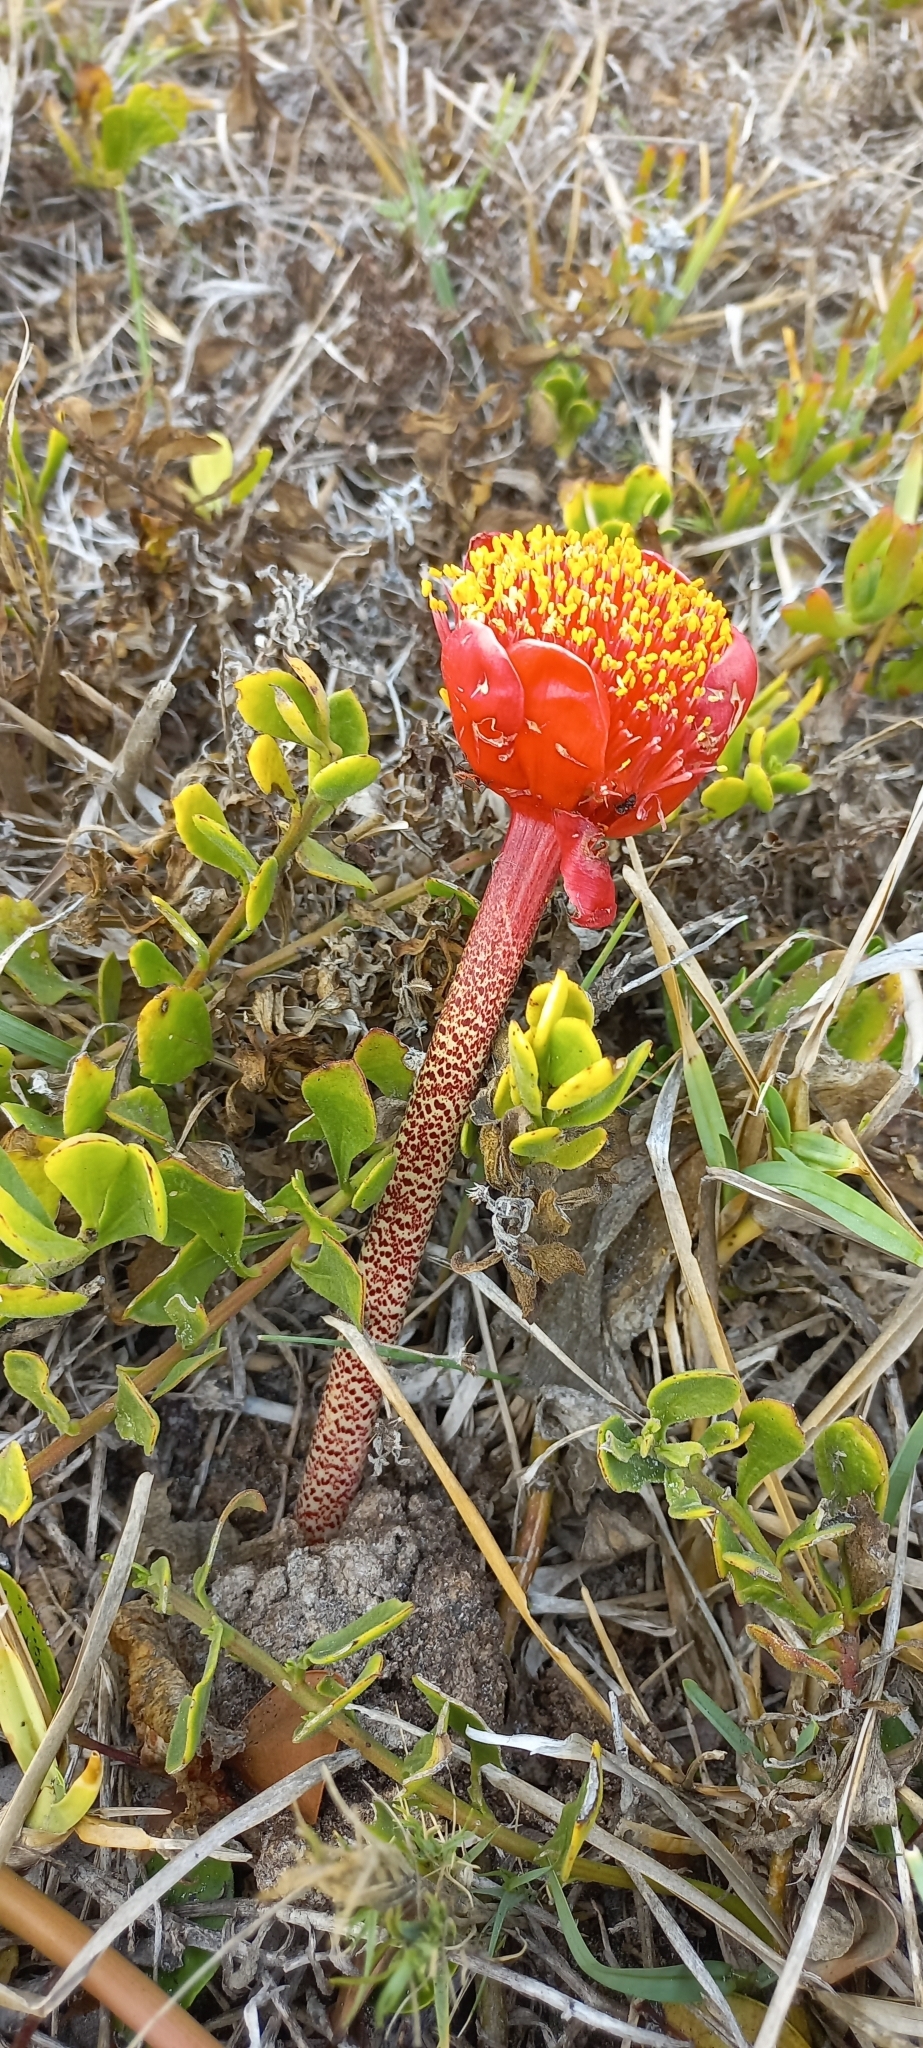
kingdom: Plantae
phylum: Tracheophyta
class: Liliopsida
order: Asparagales
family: Amaryllidaceae
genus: Haemanthus
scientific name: Haemanthus coccineus
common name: Cape-tulip
